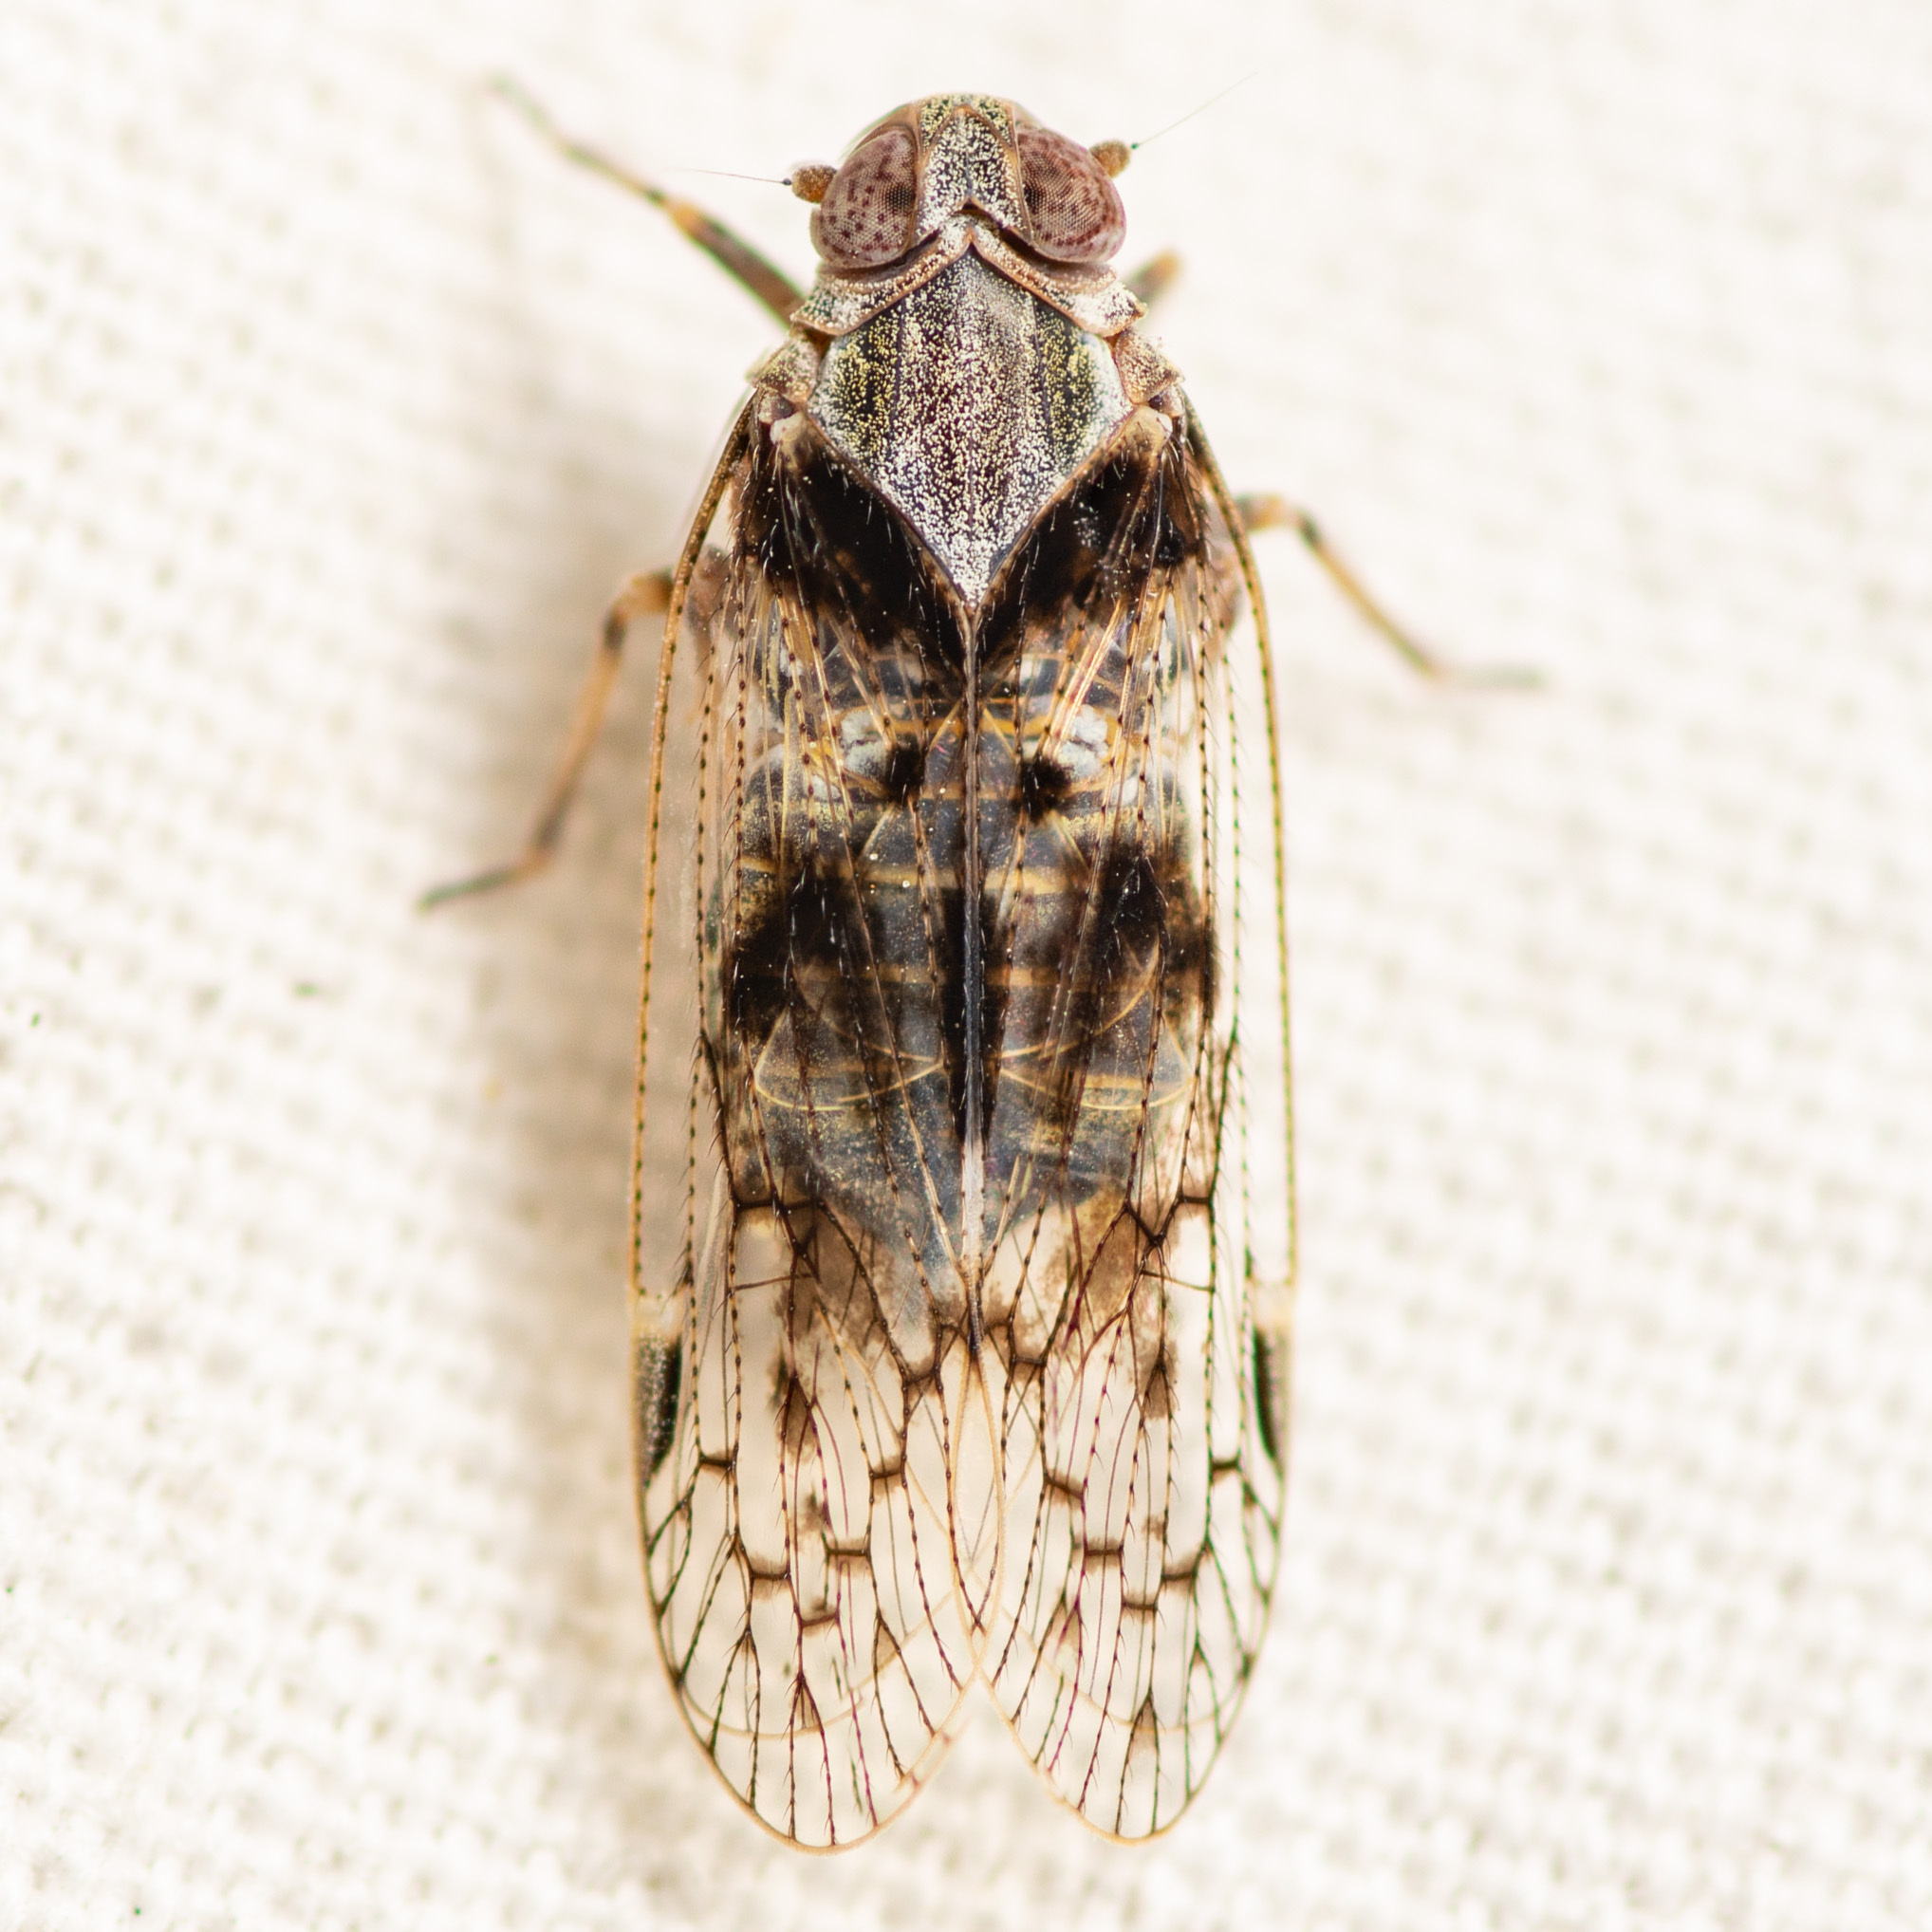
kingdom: Animalia
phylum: Arthropoda
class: Insecta
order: Hemiptera
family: Cixiidae
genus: Melanoliarus
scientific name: Melanoliarus aridus
